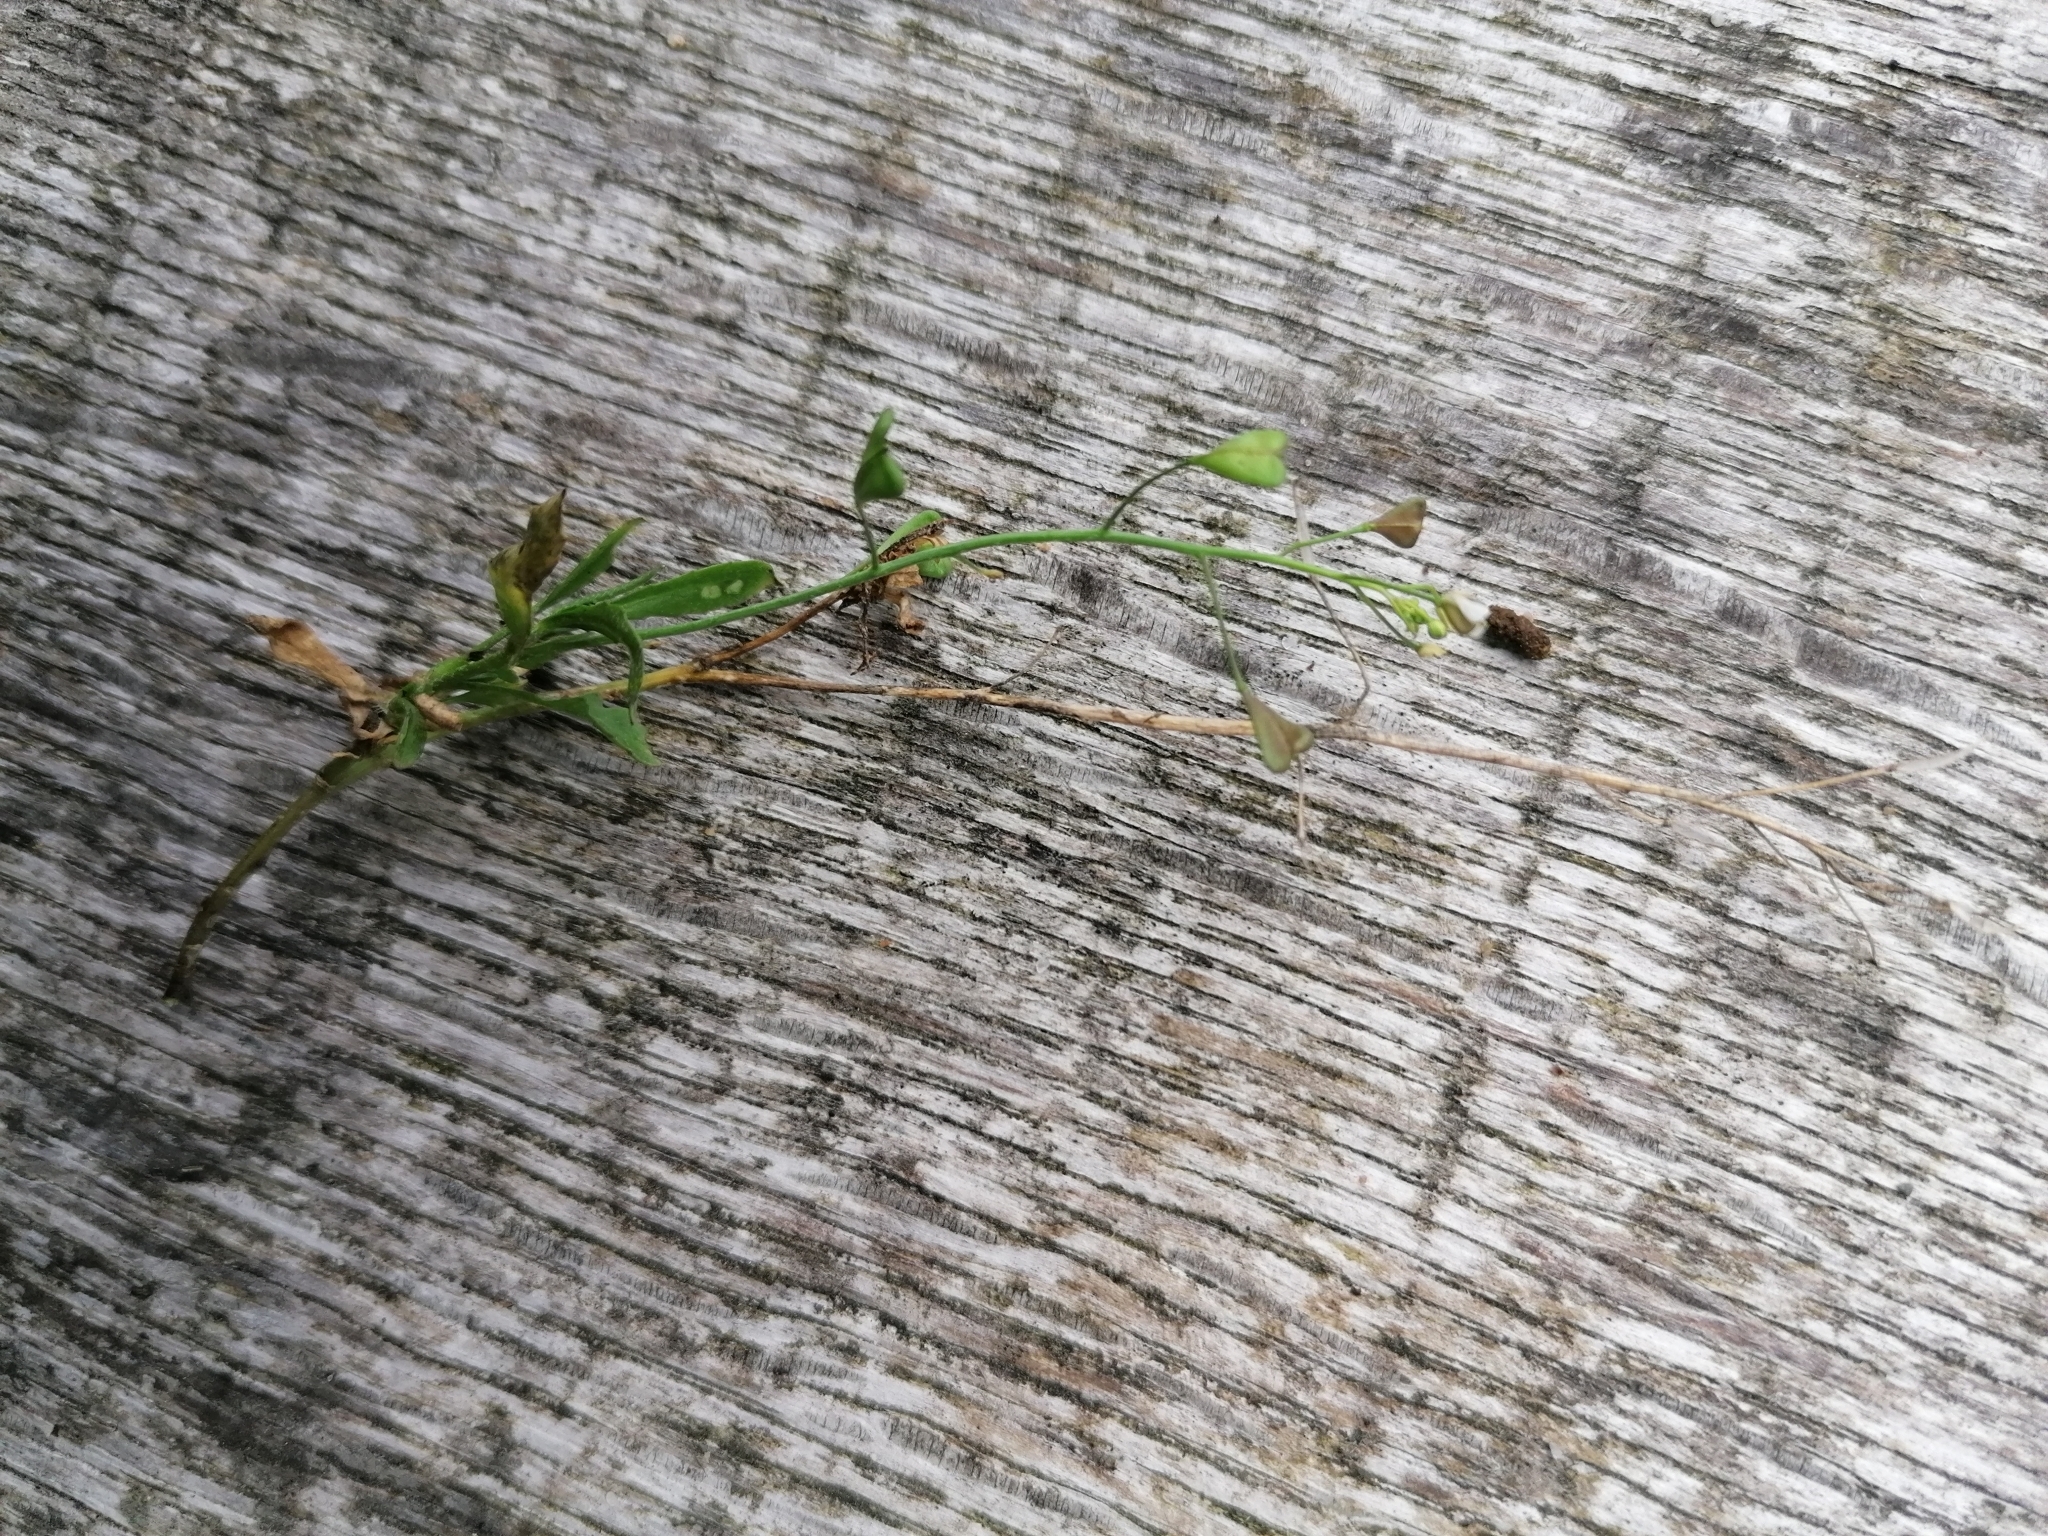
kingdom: Plantae
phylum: Tracheophyta
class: Magnoliopsida
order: Brassicales
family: Brassicaceae
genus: Capsella
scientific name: Capsella bursa-pastoris
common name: Shepherd's purse
